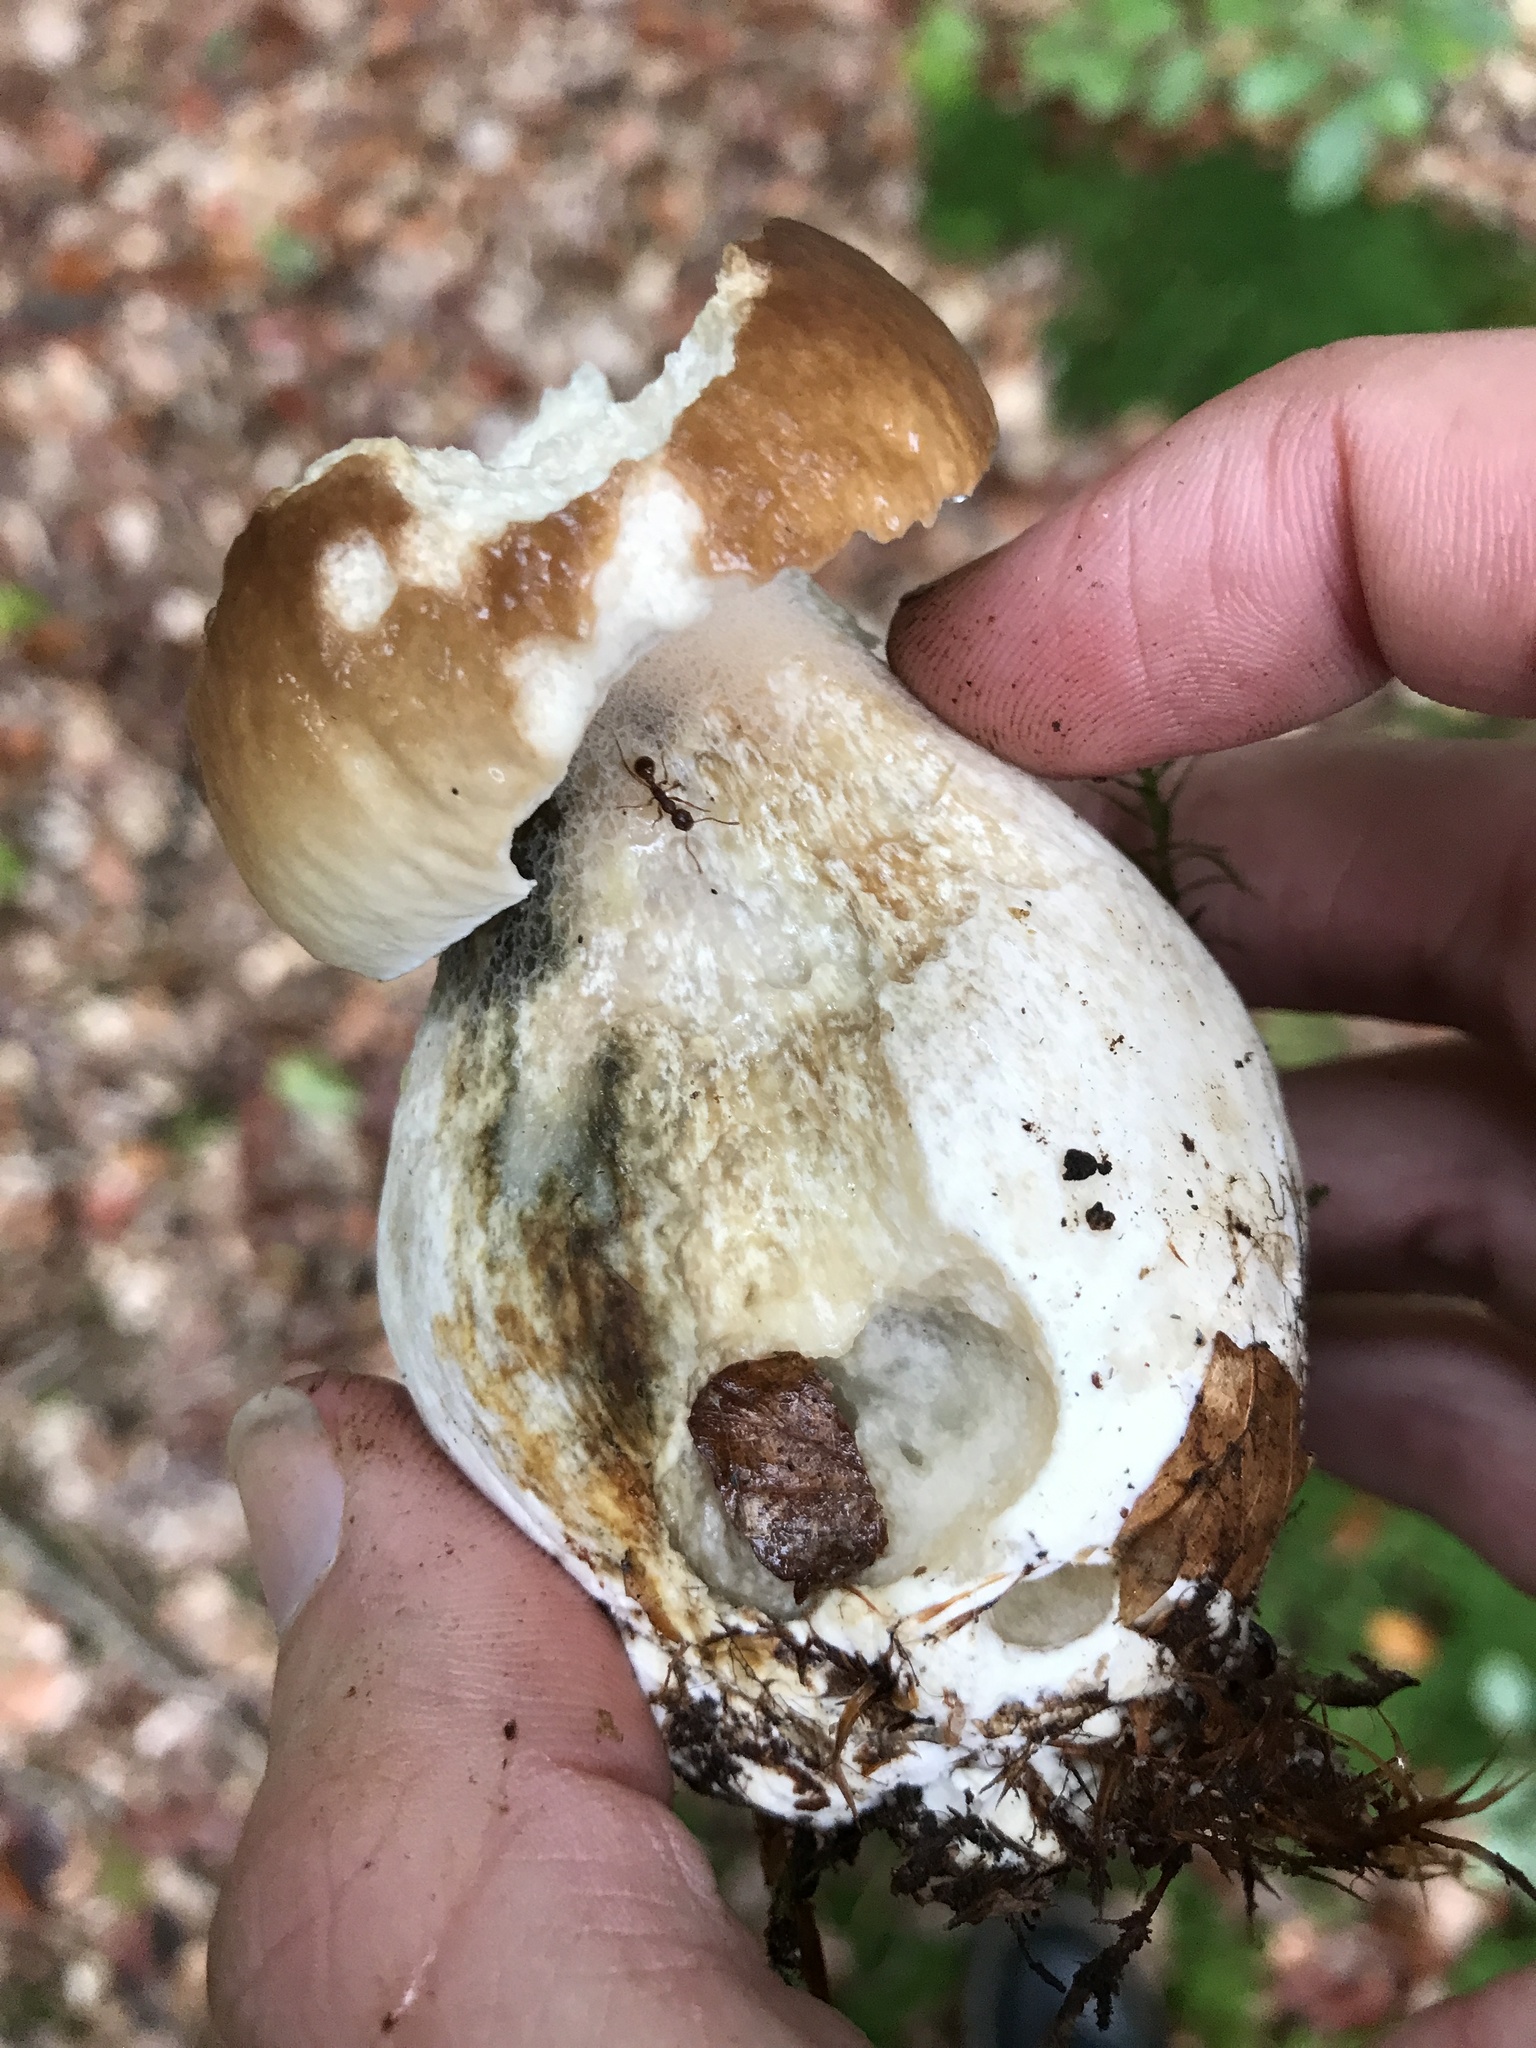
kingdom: Fungi
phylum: Basidiomycota
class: Agaricomycetes
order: Boletales
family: Boletaceae
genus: Boletus
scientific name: Boletus edulis
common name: Cep
